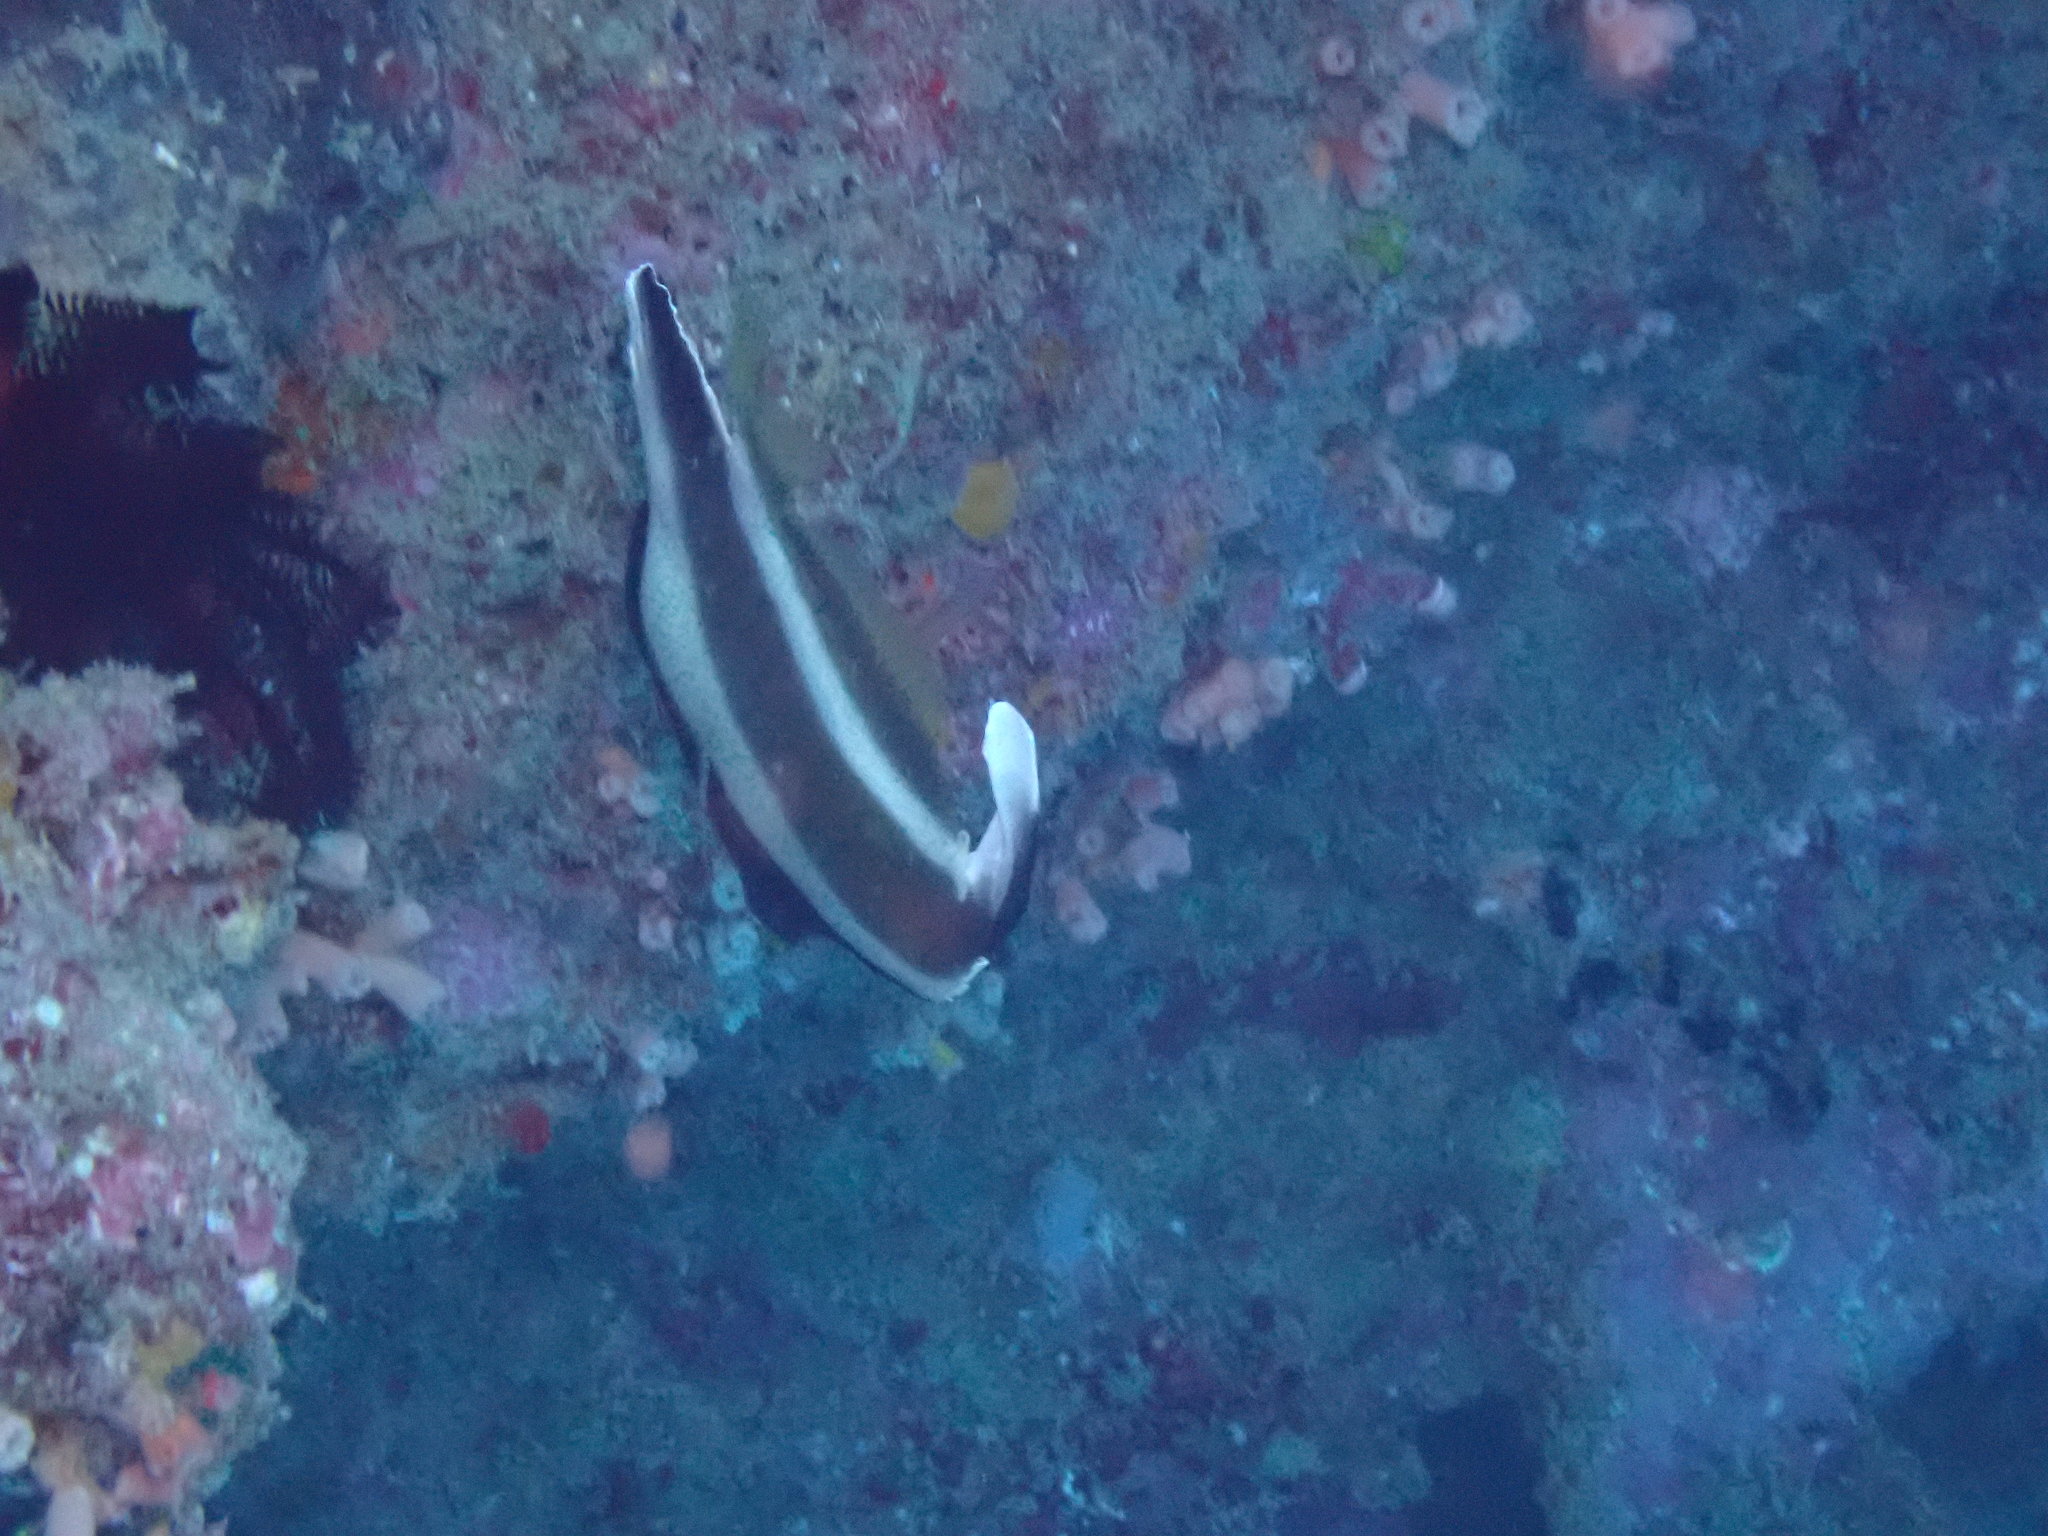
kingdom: Animalia
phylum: Chordata
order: Perciformes
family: Chaetodontidae
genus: Heniochus
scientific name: Heniochus chrysostomus
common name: Horned bannerfish
